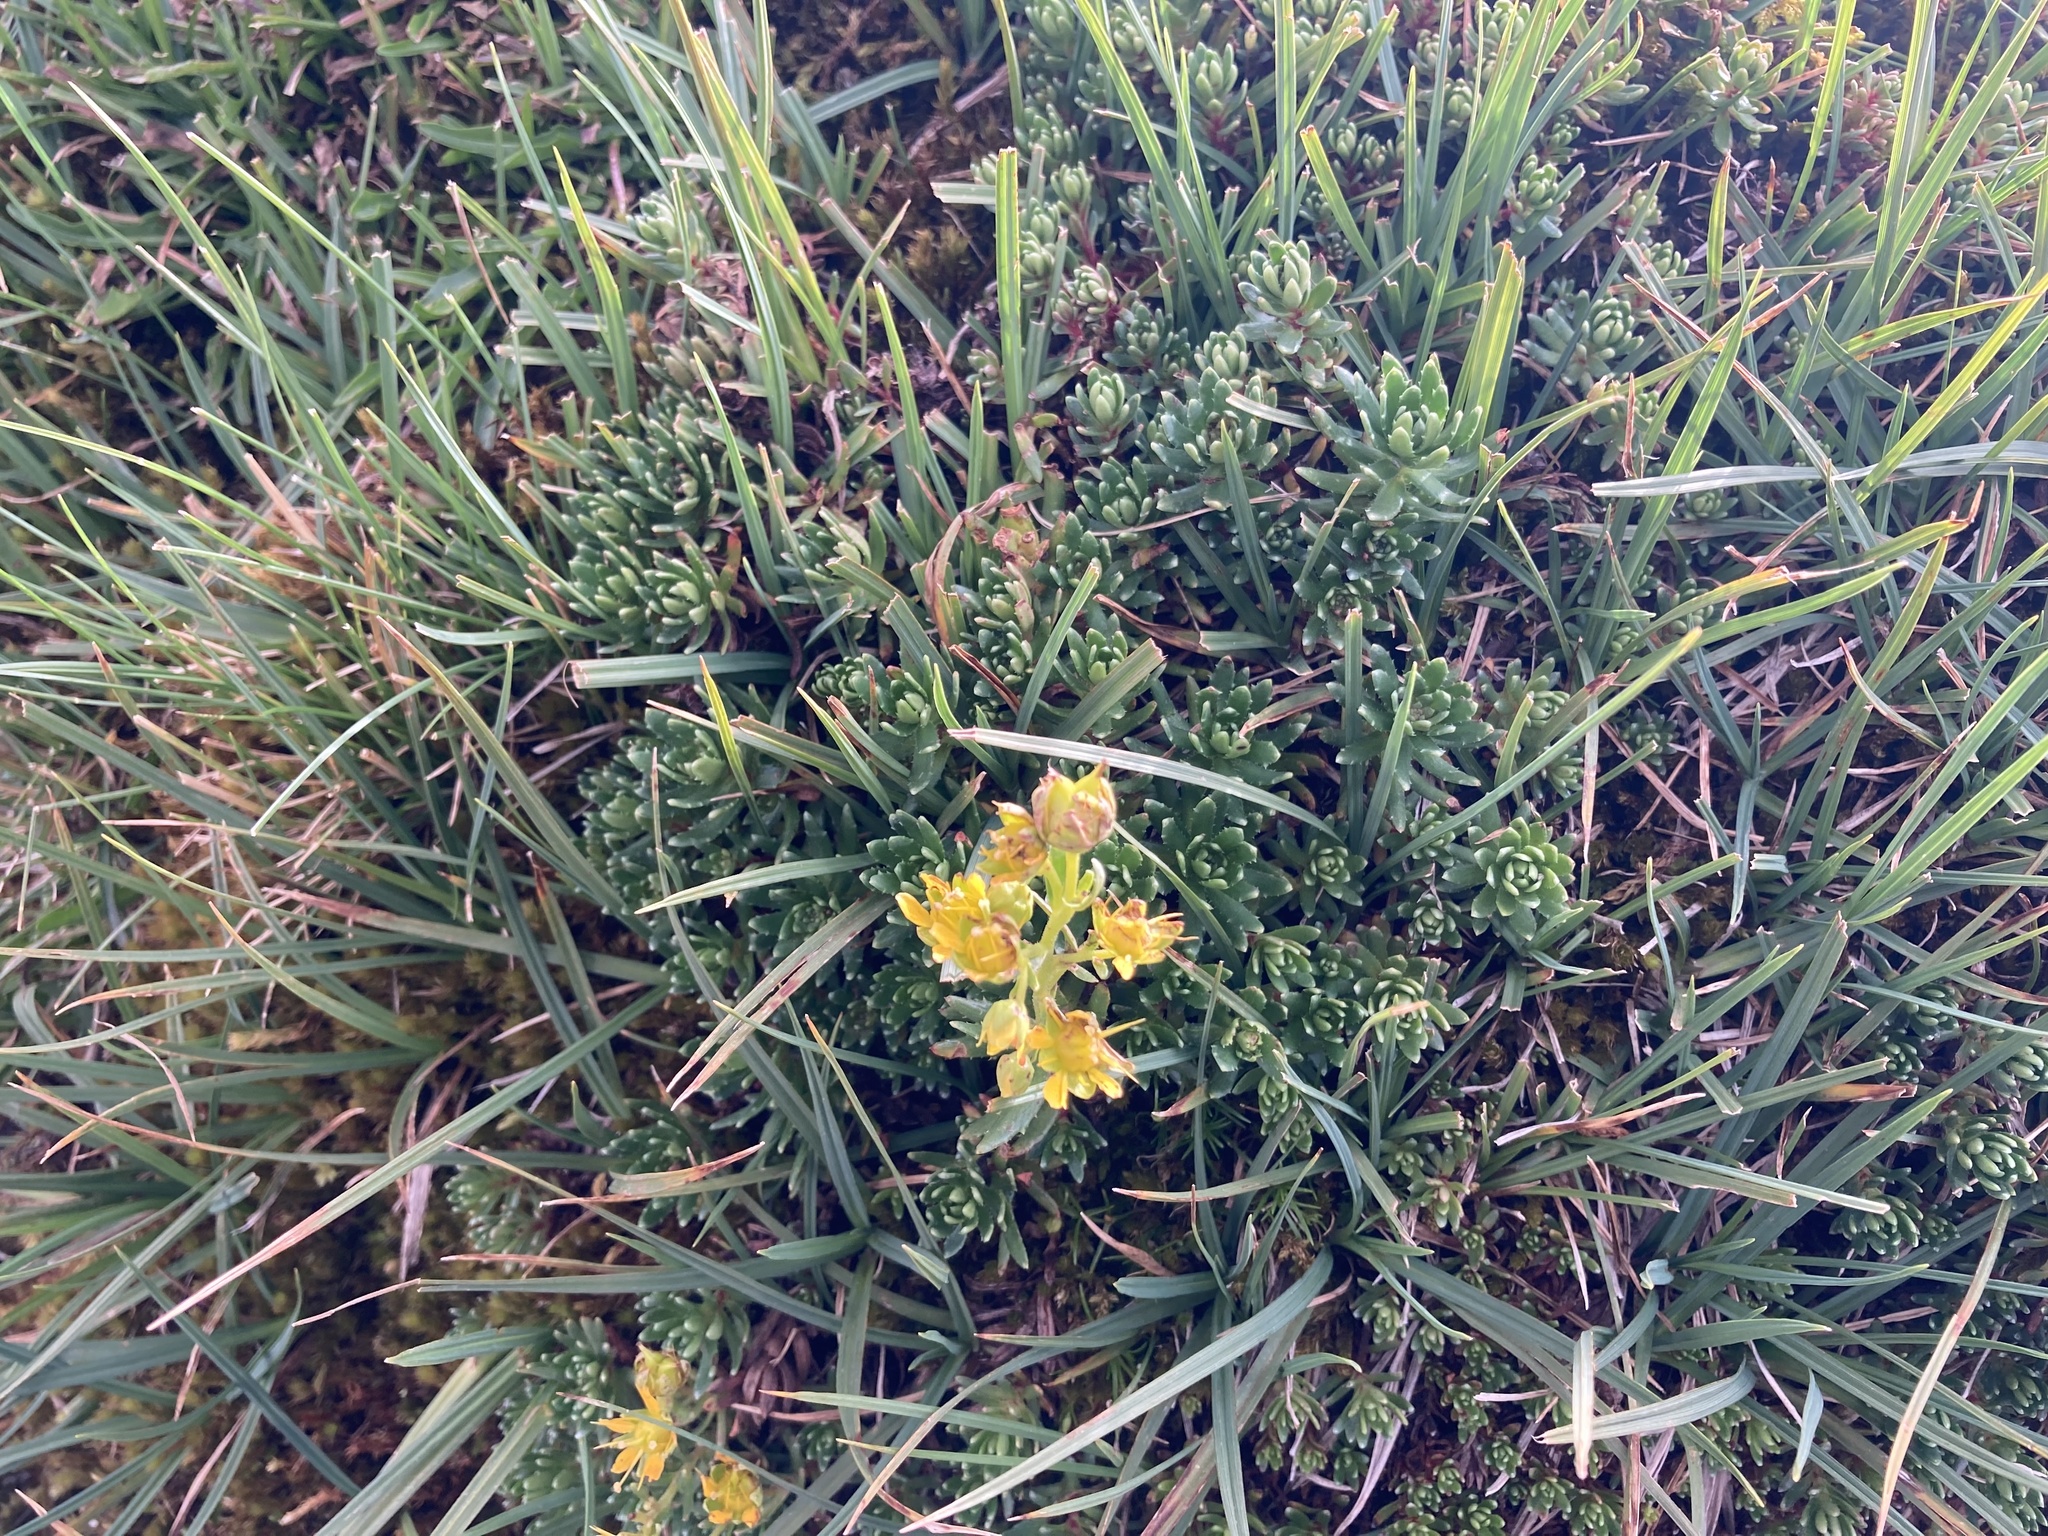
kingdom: Plantae
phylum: Tracheophyta
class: Magnoliopsida
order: Saxifragales
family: Saxifragaceae
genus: Saxifraga
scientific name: Saxifraga aizoides
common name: Yellow mountain saxifrage
